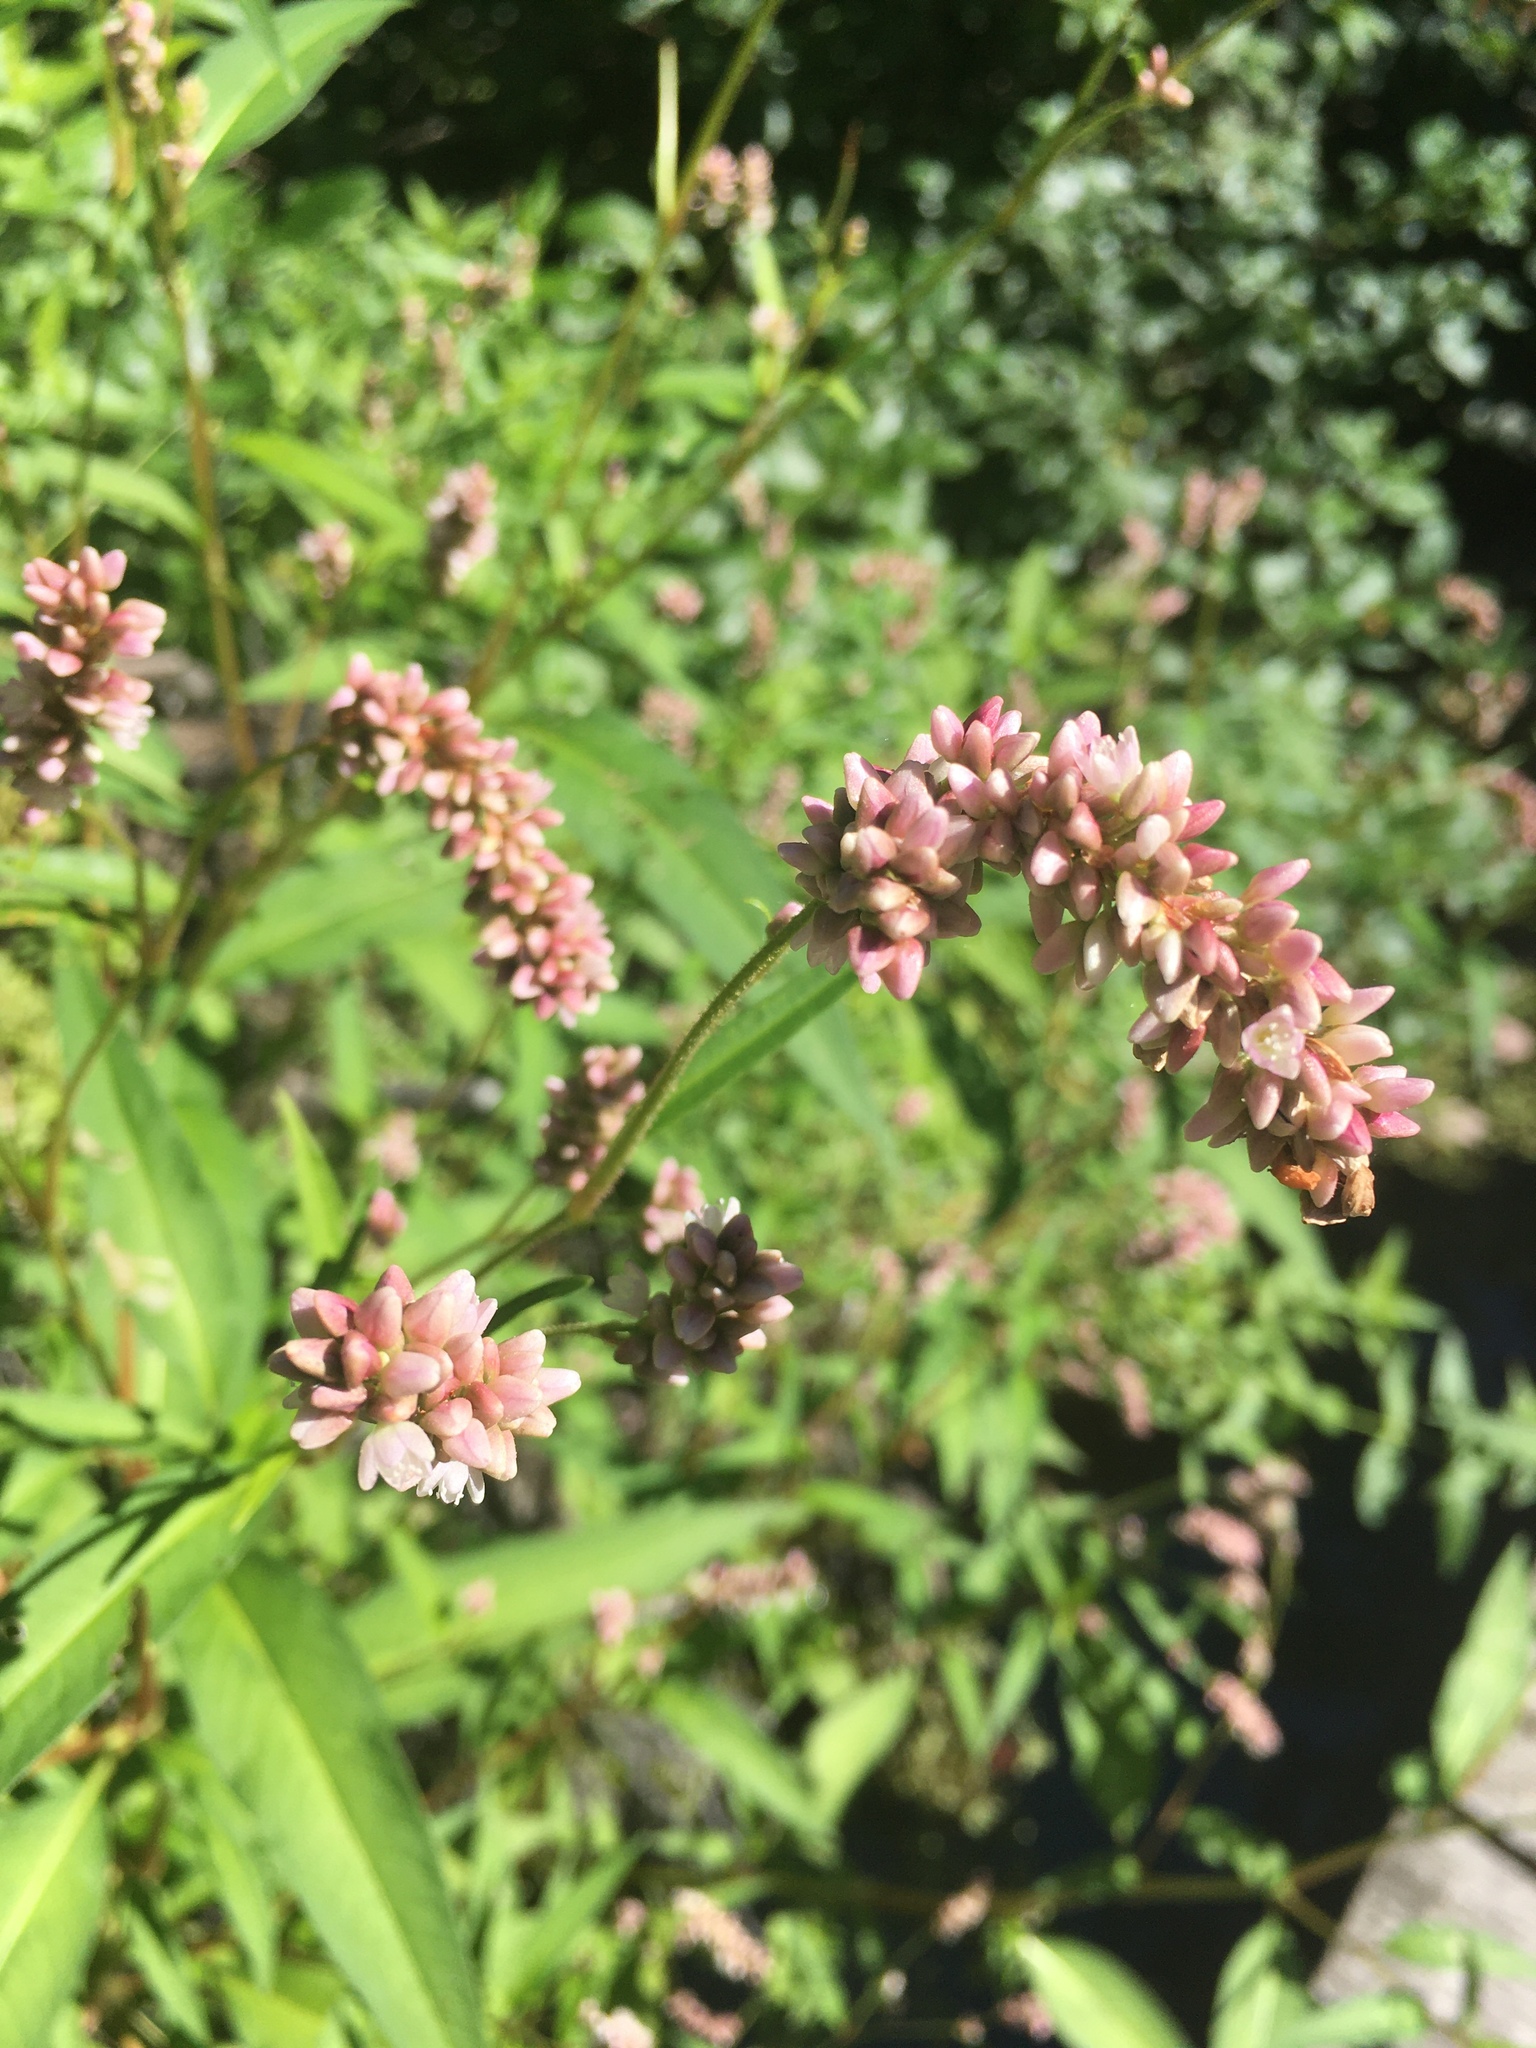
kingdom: Plantae
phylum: Tracheophyta
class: Magnoliopsida
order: Caryophyllales
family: Polygonaceae
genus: Persicaria
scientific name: Persicaria pensylvanica
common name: Pinkweed
